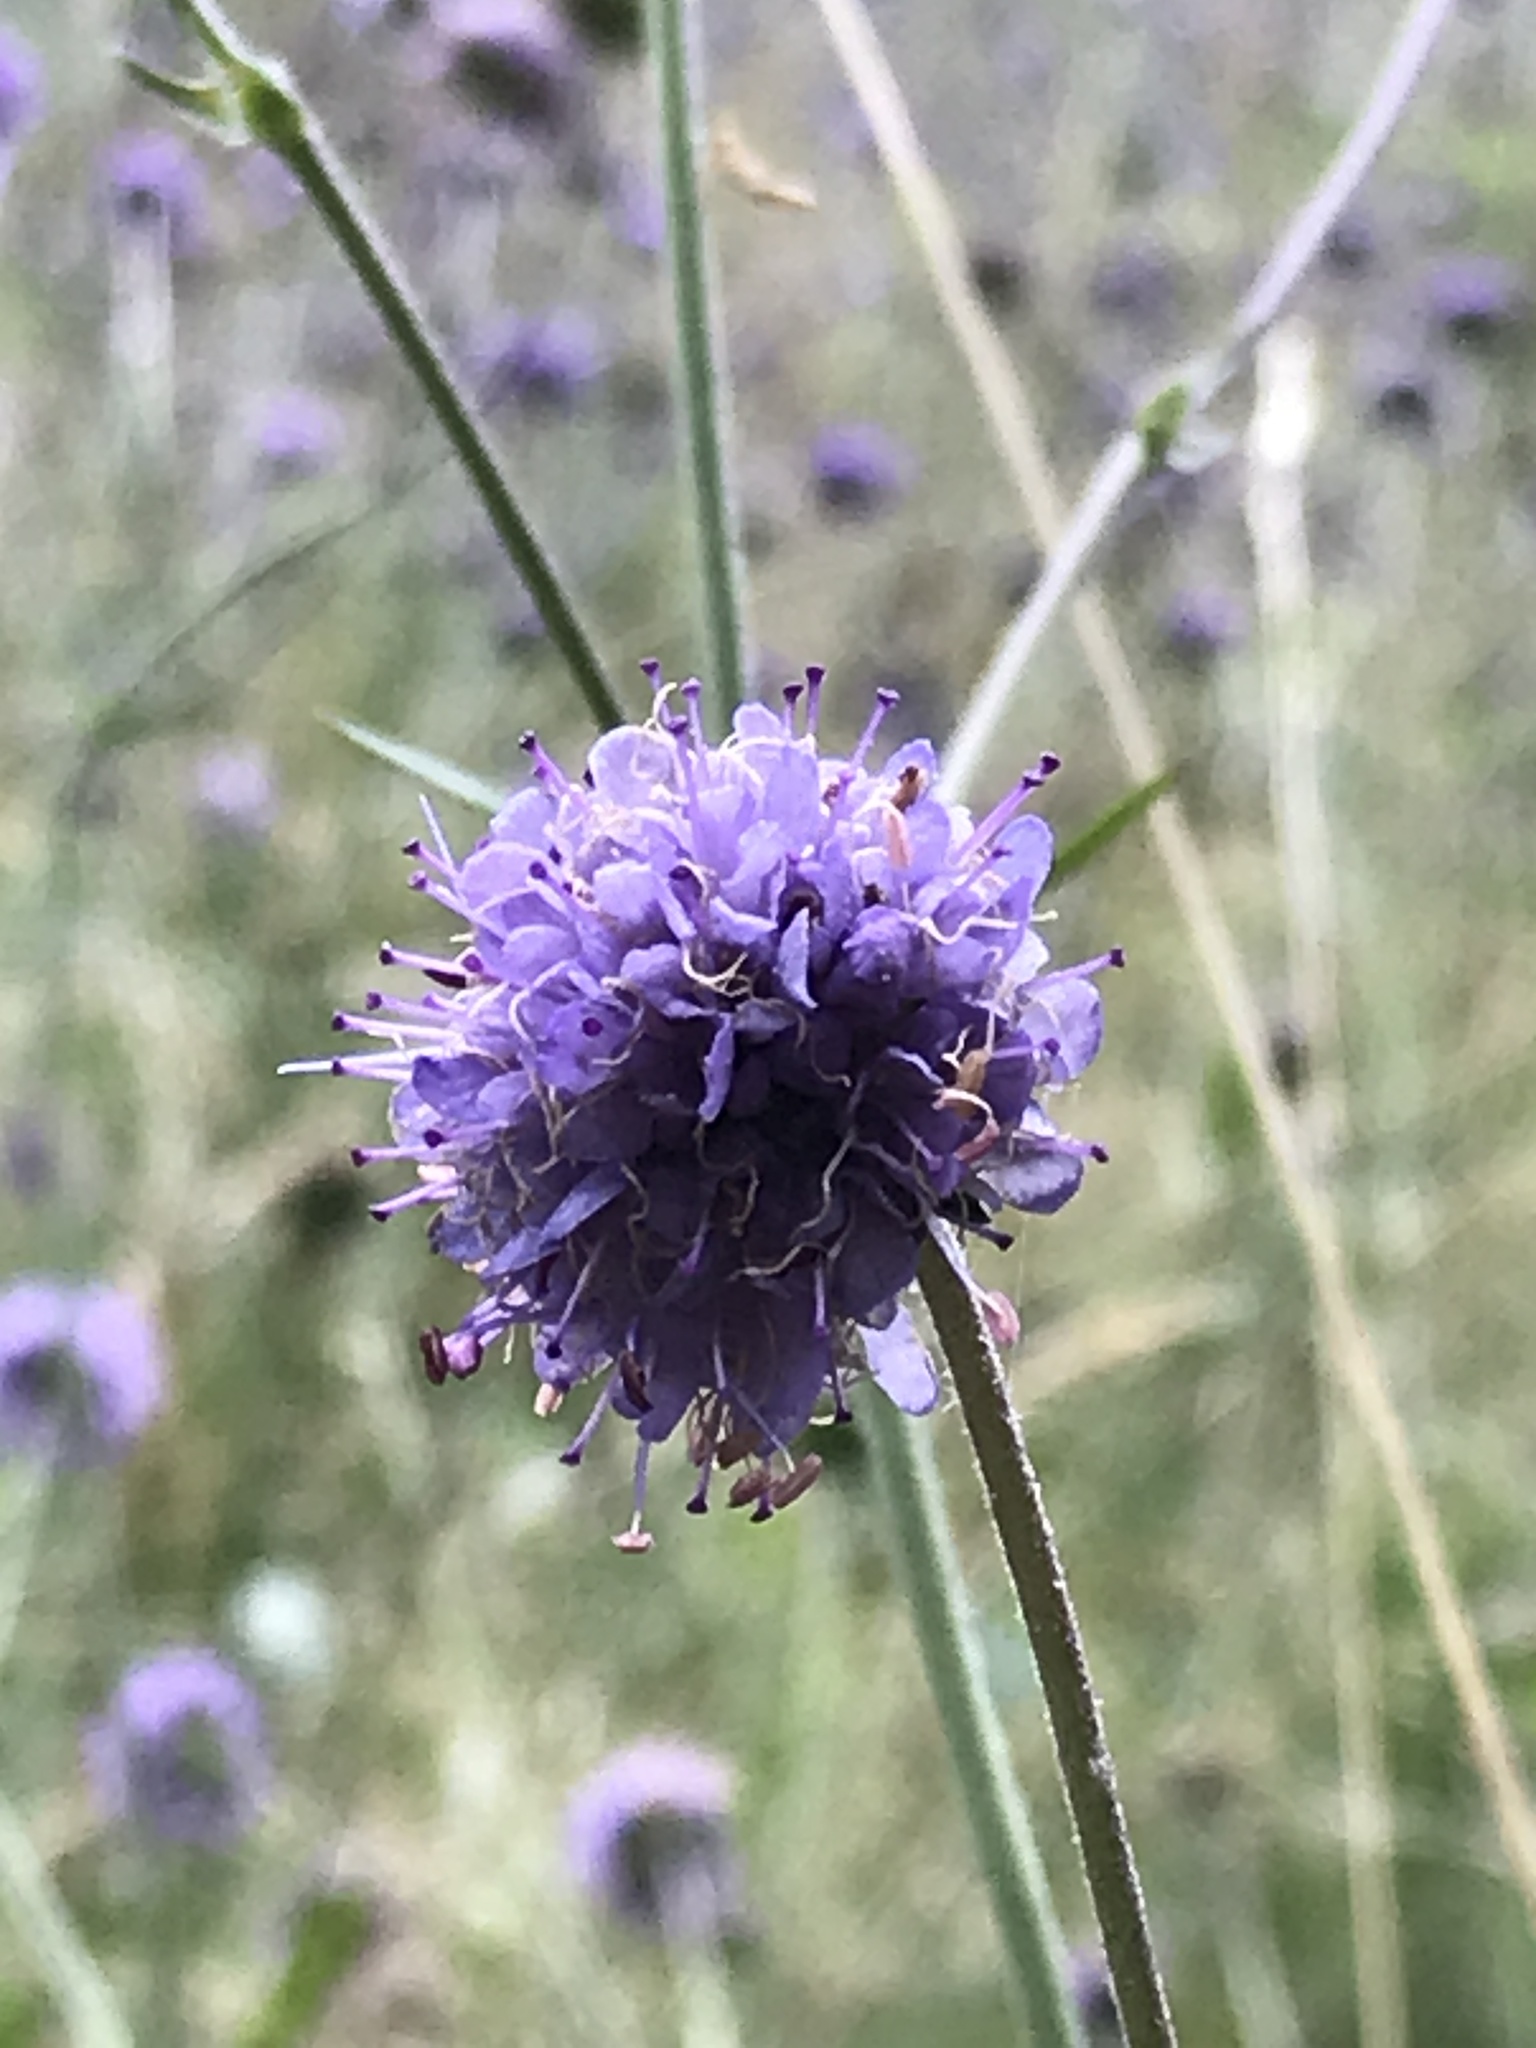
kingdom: Plantae
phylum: Tracheophyta
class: Magnoliopsida
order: Dipsacales
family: Caprifoliaceae
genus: Succisa
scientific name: Succisa pratensis
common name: Devil's-bit
